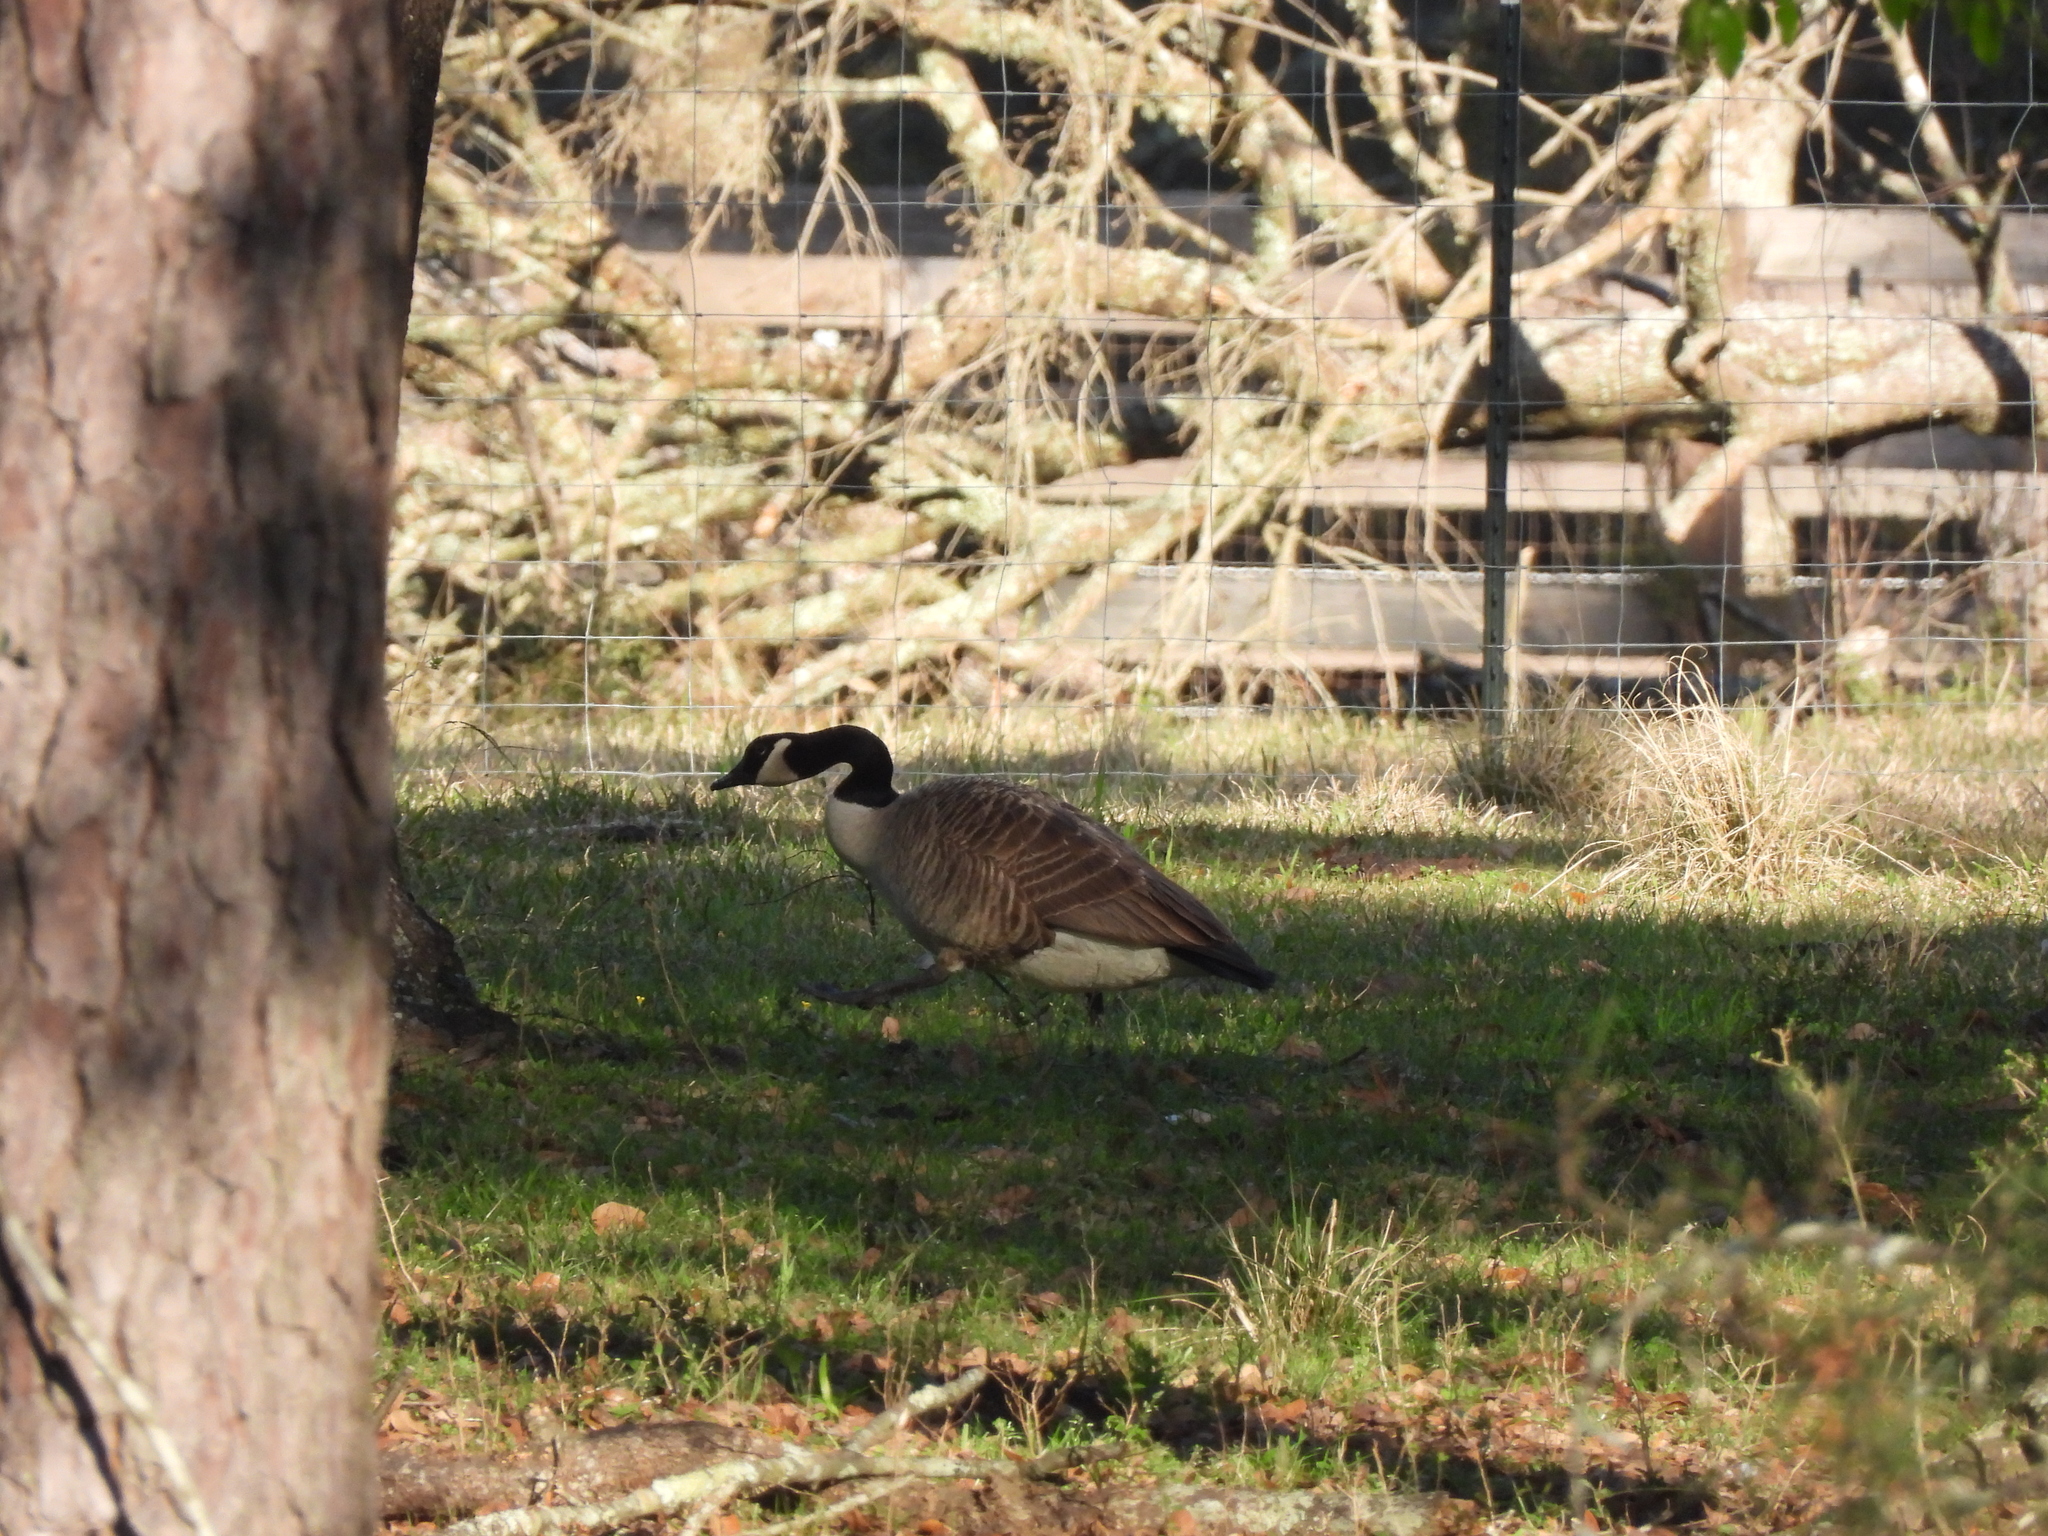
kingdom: Animalia
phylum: Chordata
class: Aves
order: Anseriformes
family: Anatidae
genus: Branta
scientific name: Branta canadensis
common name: Canada goose
